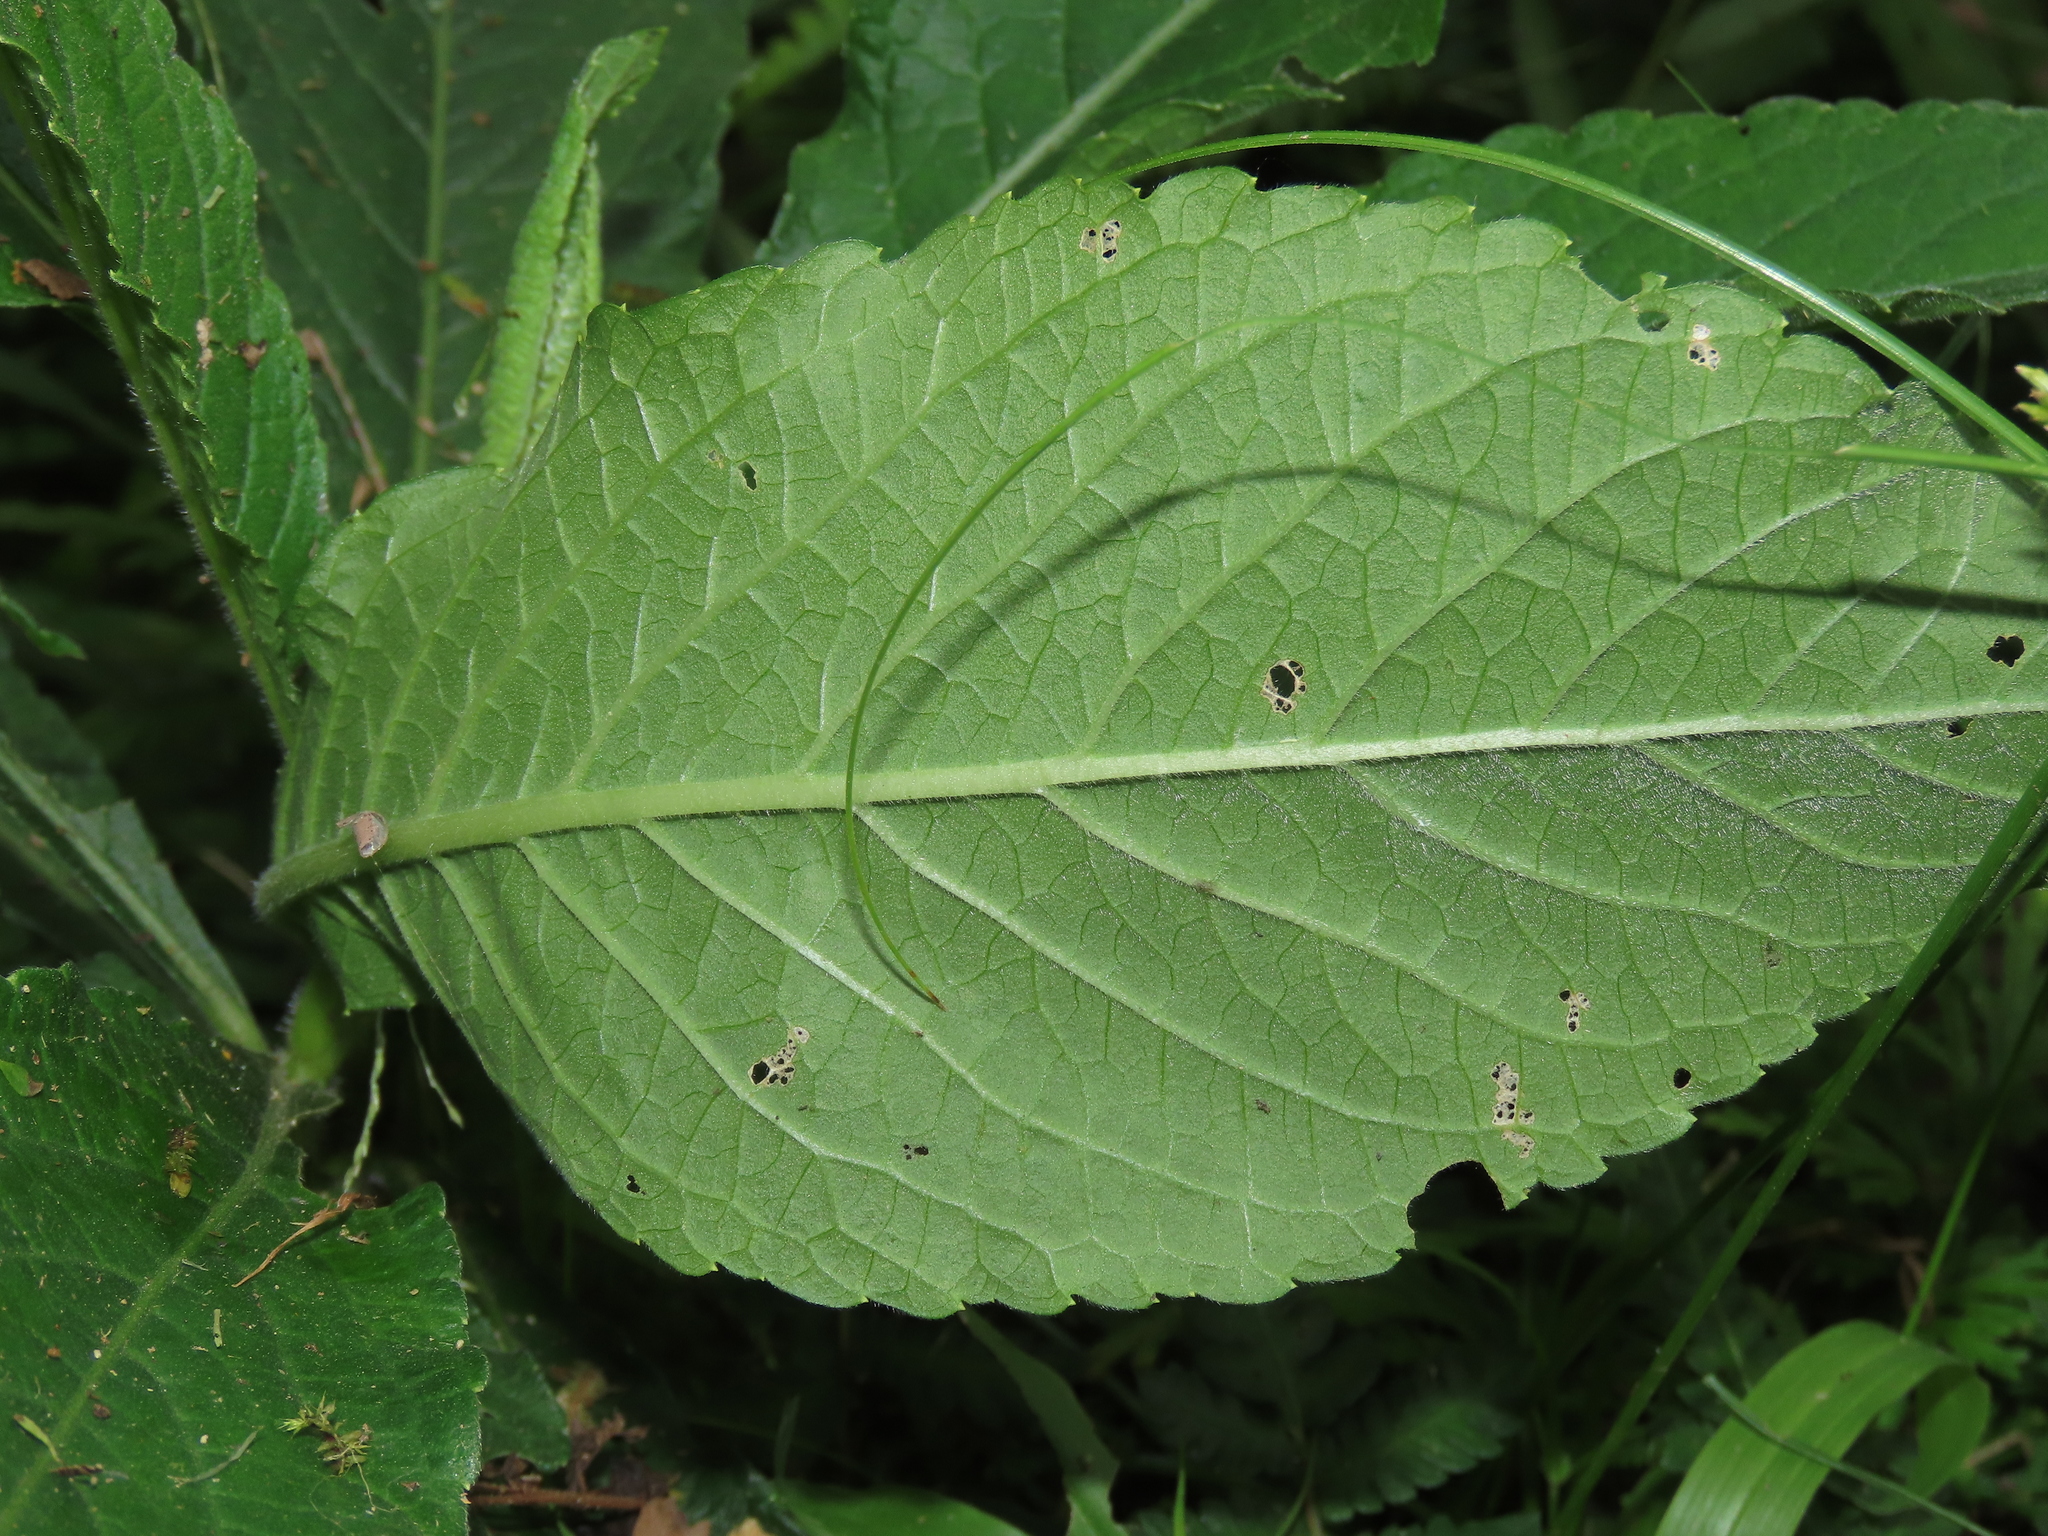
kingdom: Plantae
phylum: Tracheophyta
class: Magnoliopsida
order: Asterales
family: Asteraceae
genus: Elephantopus
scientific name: Elephantopus mollis
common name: Soft elephantsfoot
